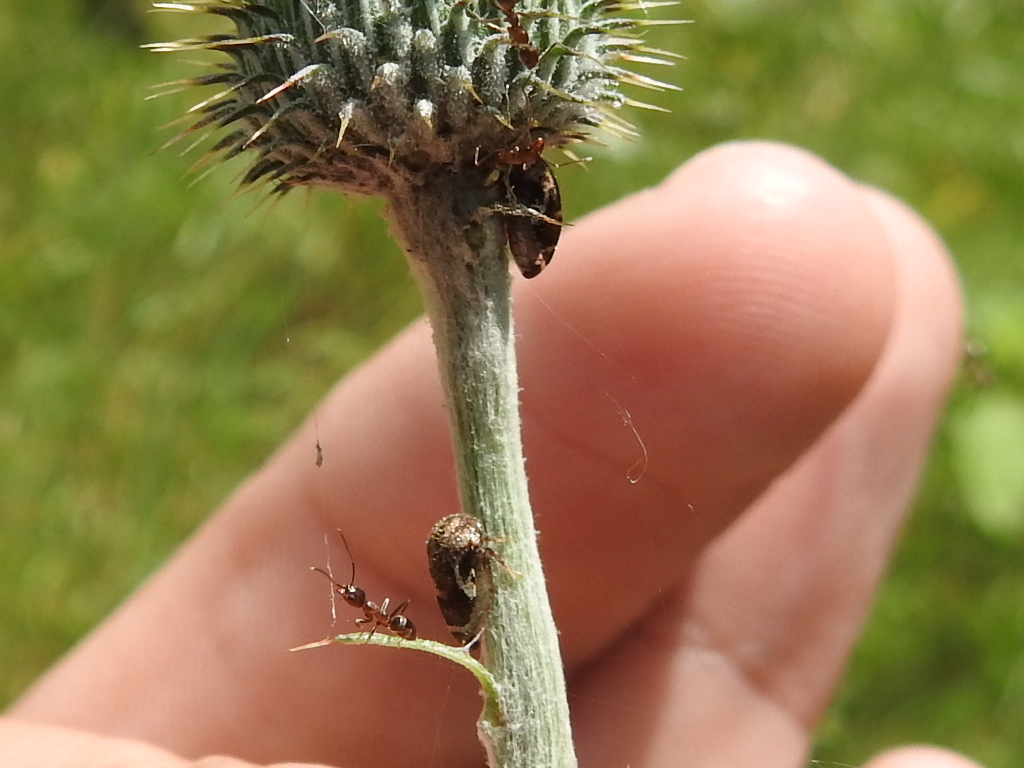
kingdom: Animalia
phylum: Arthropoda
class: Insecta
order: Hemiptera
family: Membracidae
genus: Vanduzea
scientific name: Vanduzea segmentata
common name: Membracid bug
